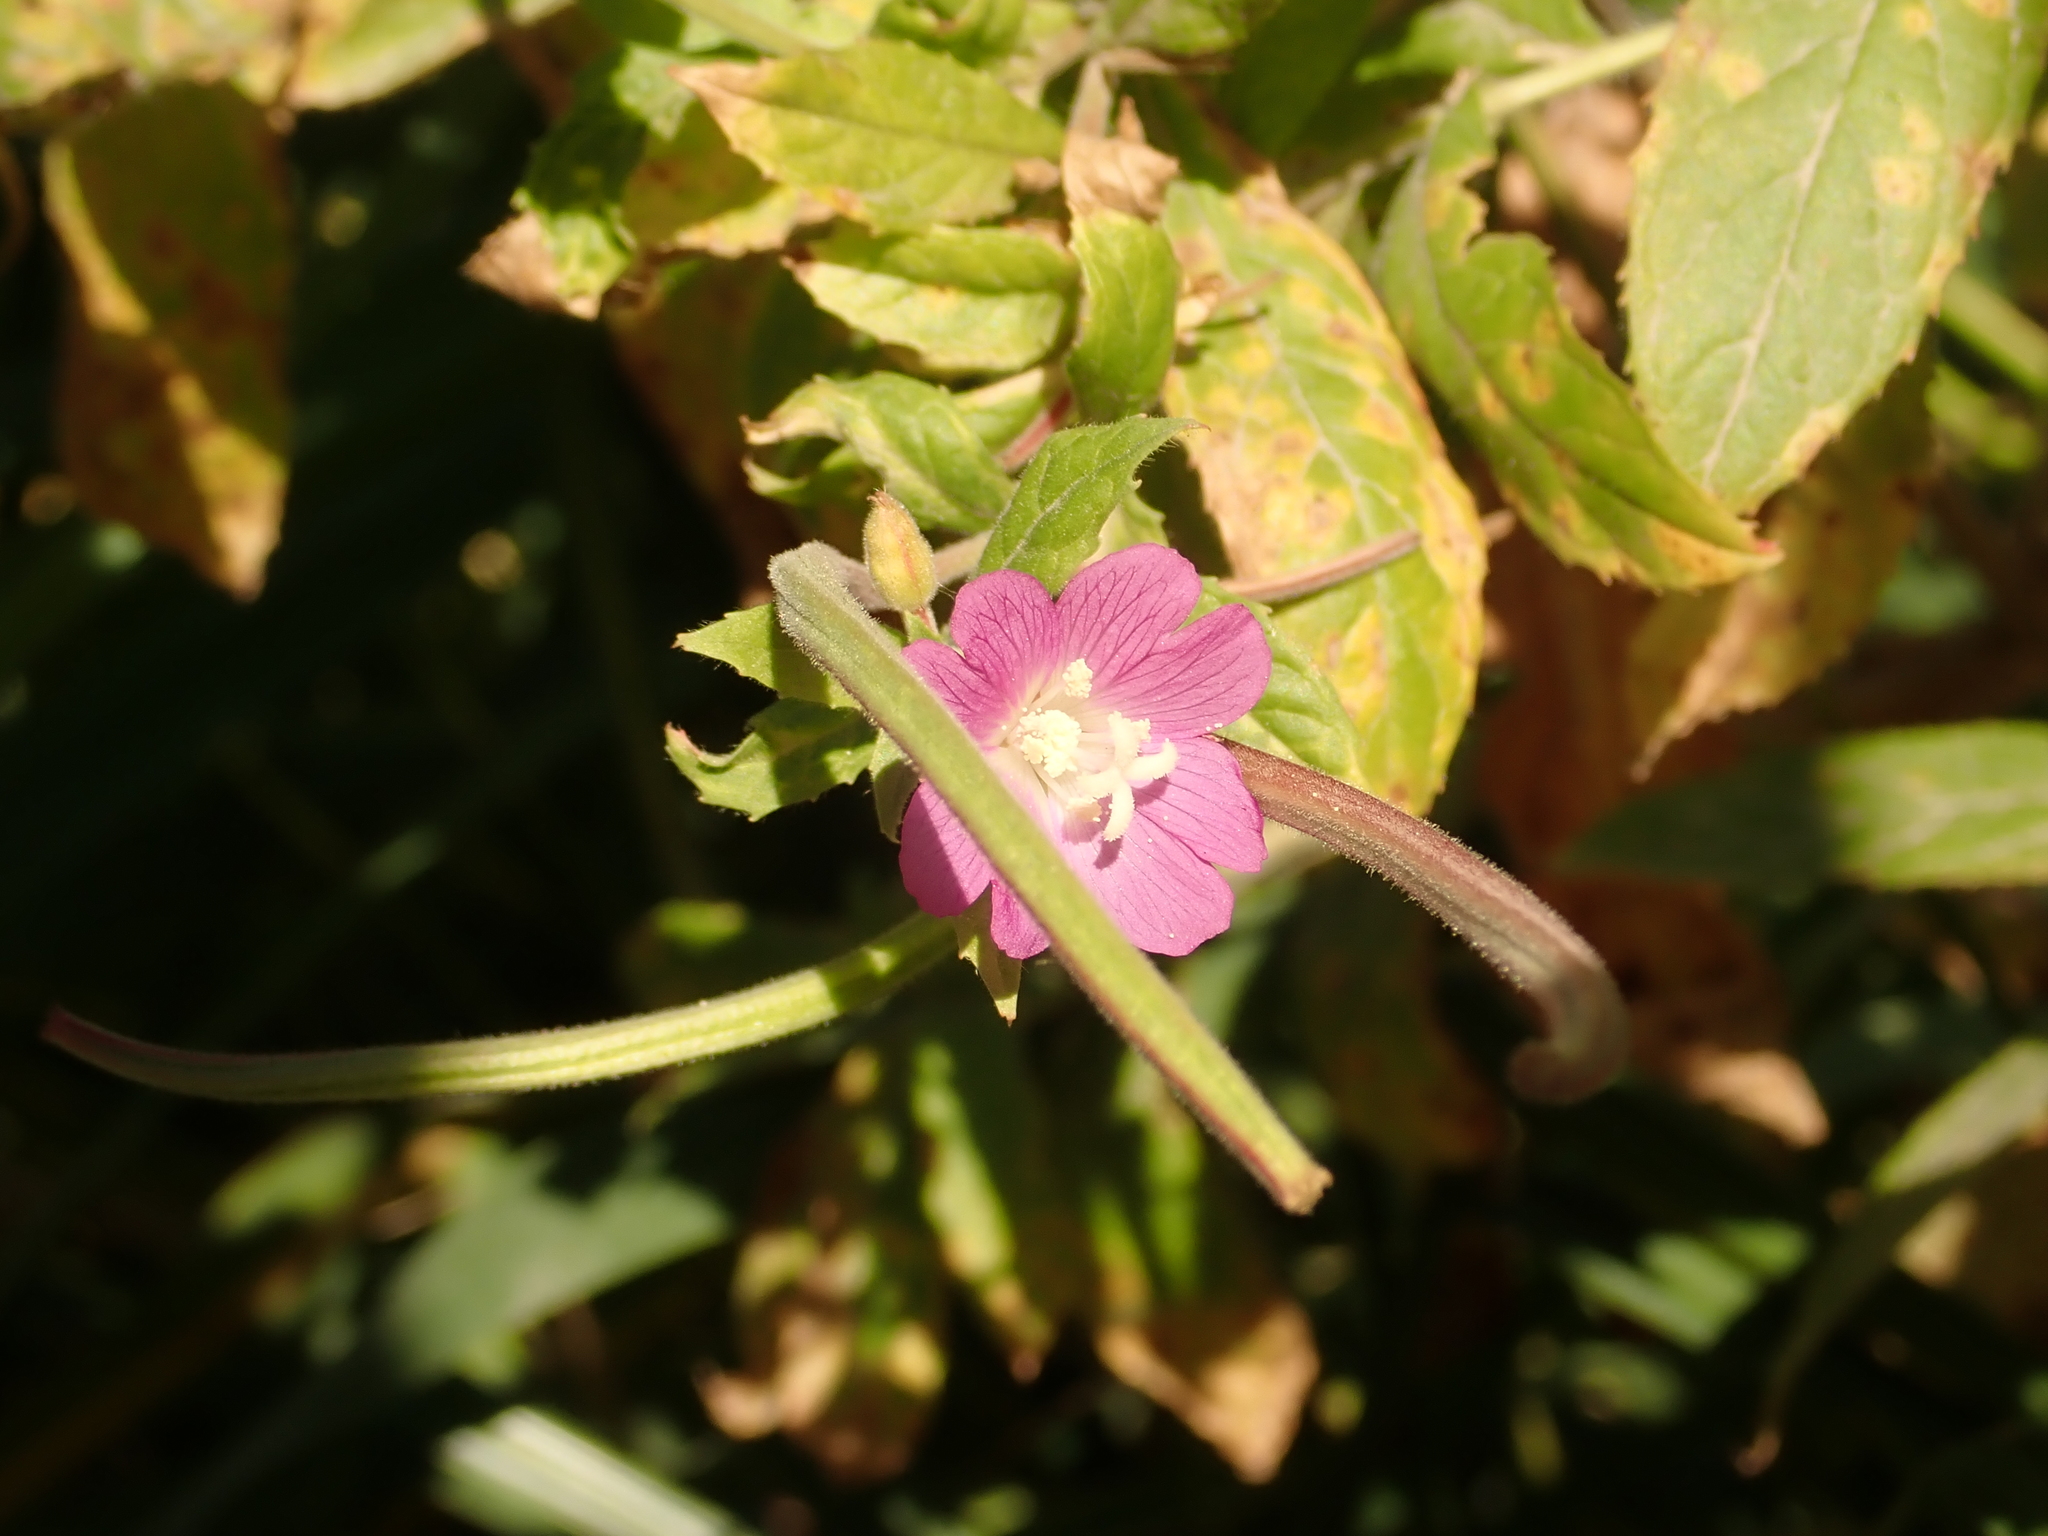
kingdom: Plantae
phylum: Tracheophyta
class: Magnoliopsida
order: Myrtales
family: Onagraceae
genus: Epilobium
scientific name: Epilobium hirsutum
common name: Great willowherb
